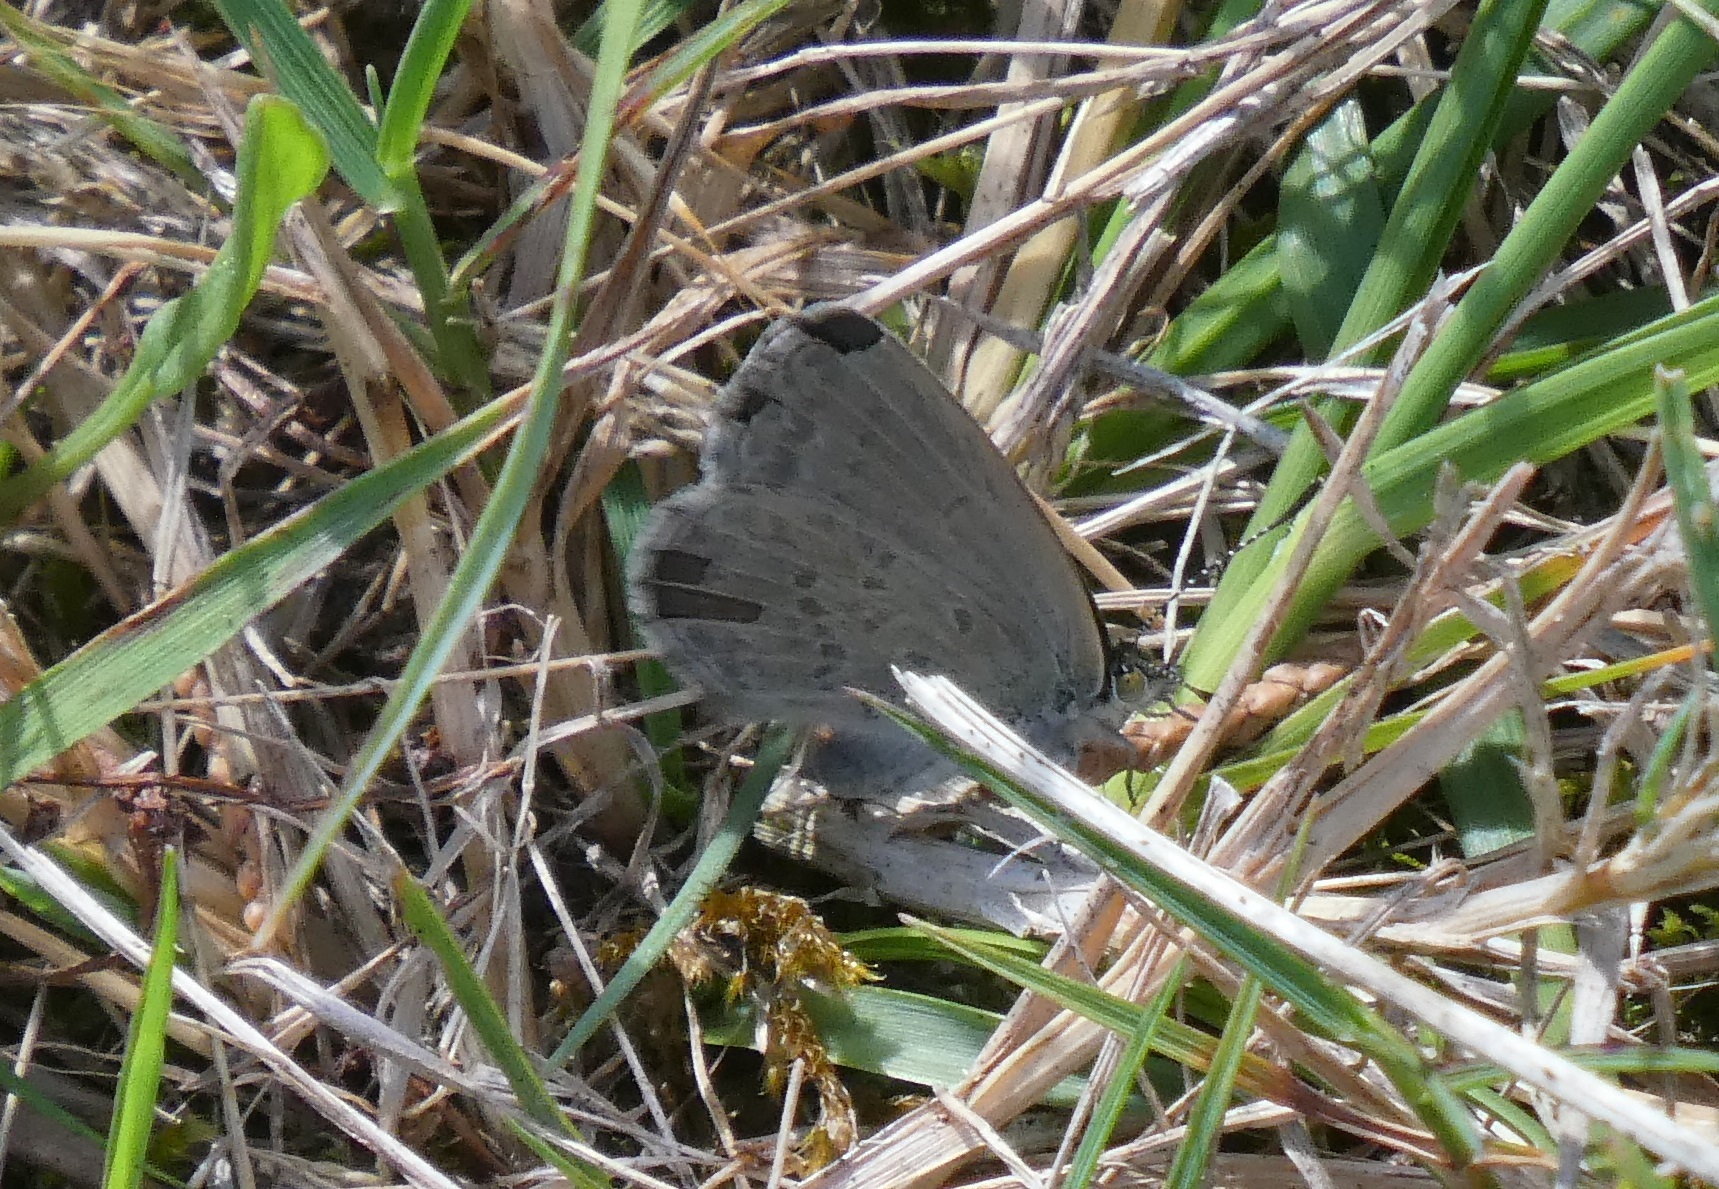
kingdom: Animalia
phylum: Arthropoda
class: Insecta
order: Lepidoptera
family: Lycaenidae
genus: Zizina
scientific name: Zizina labradus
